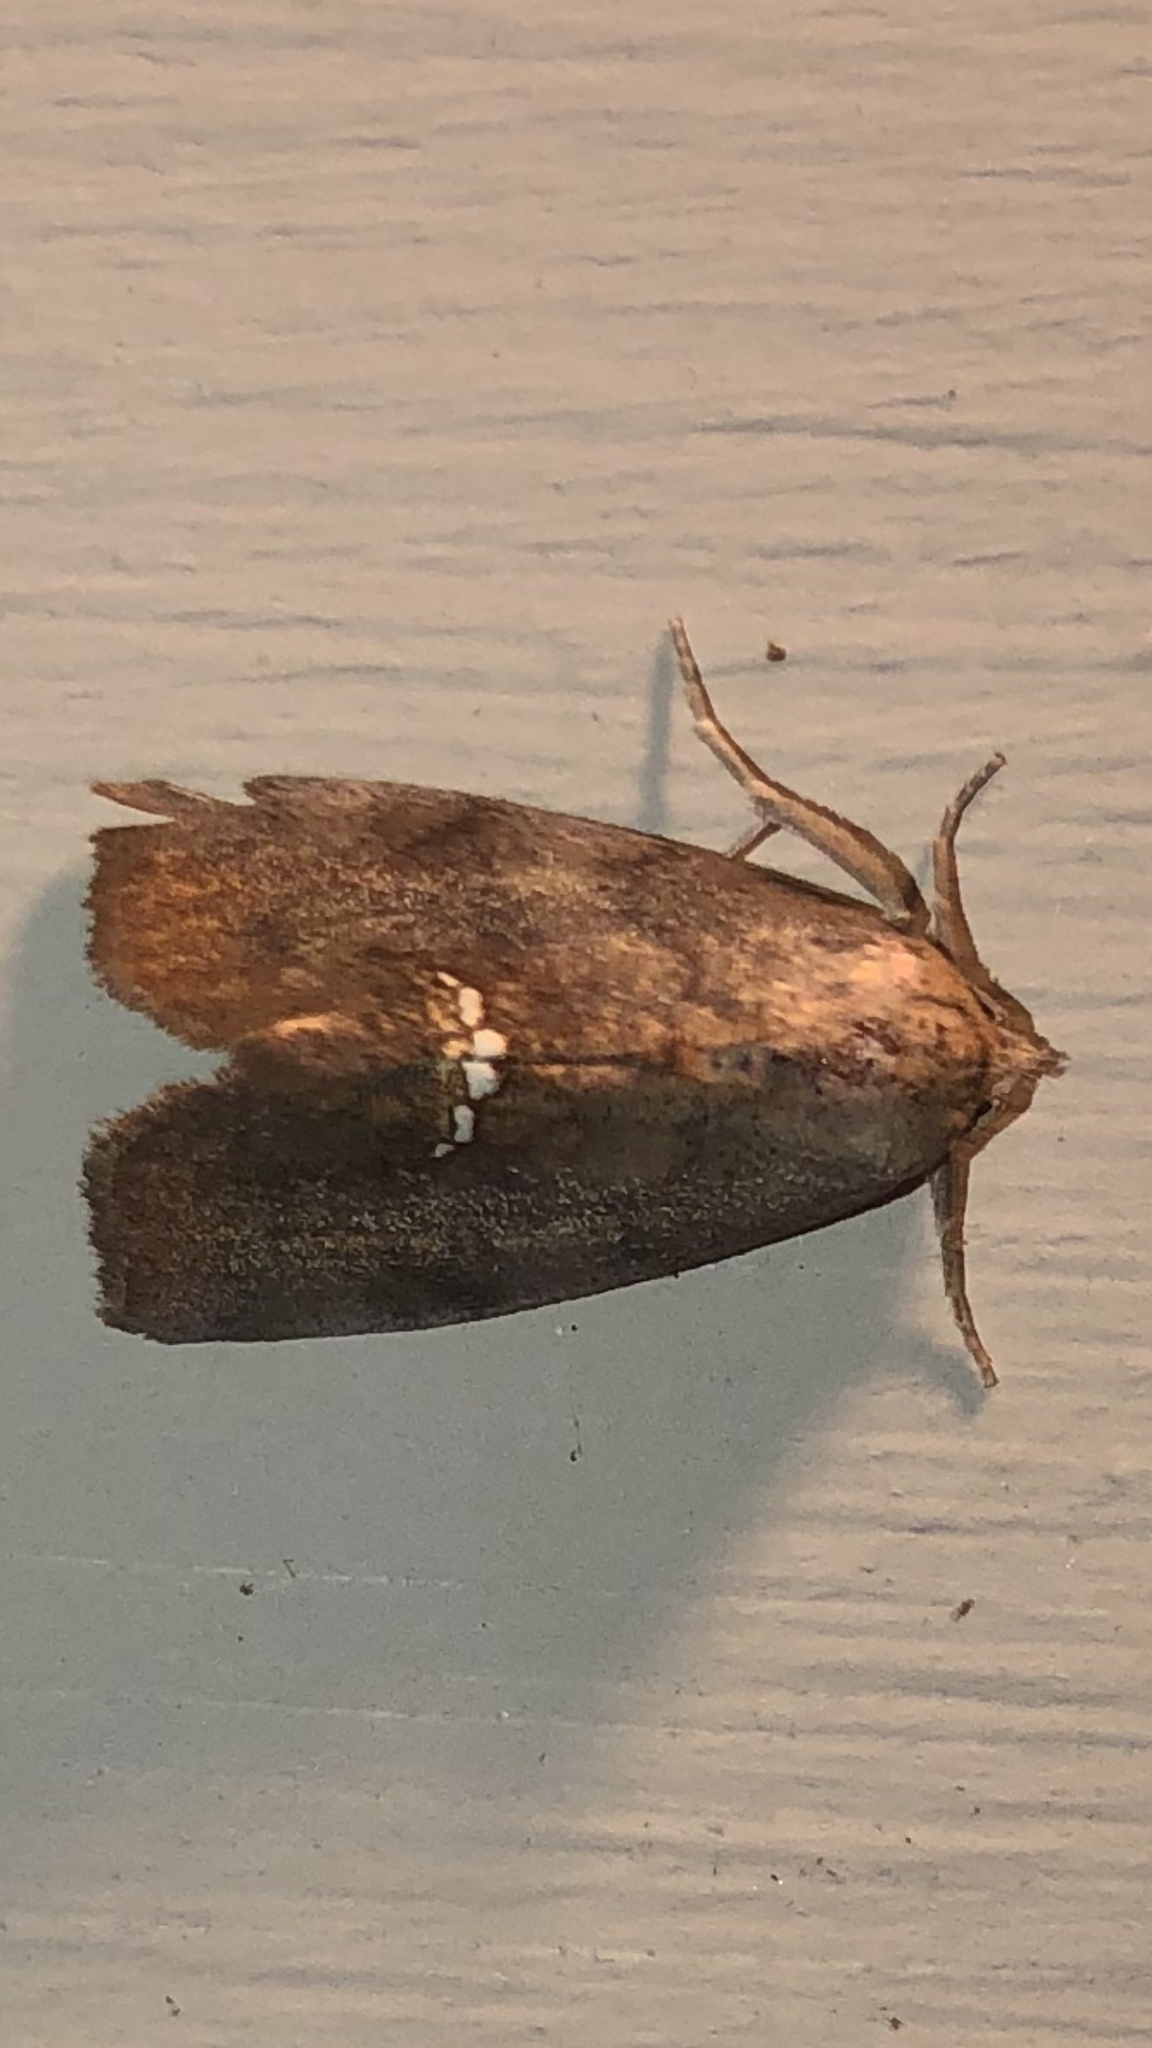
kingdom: Animalia
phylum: Arthropoda
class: Insecta
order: Lepidoptera
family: Erebidae
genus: Hypsoropha
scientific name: Hypsoropha hormos
